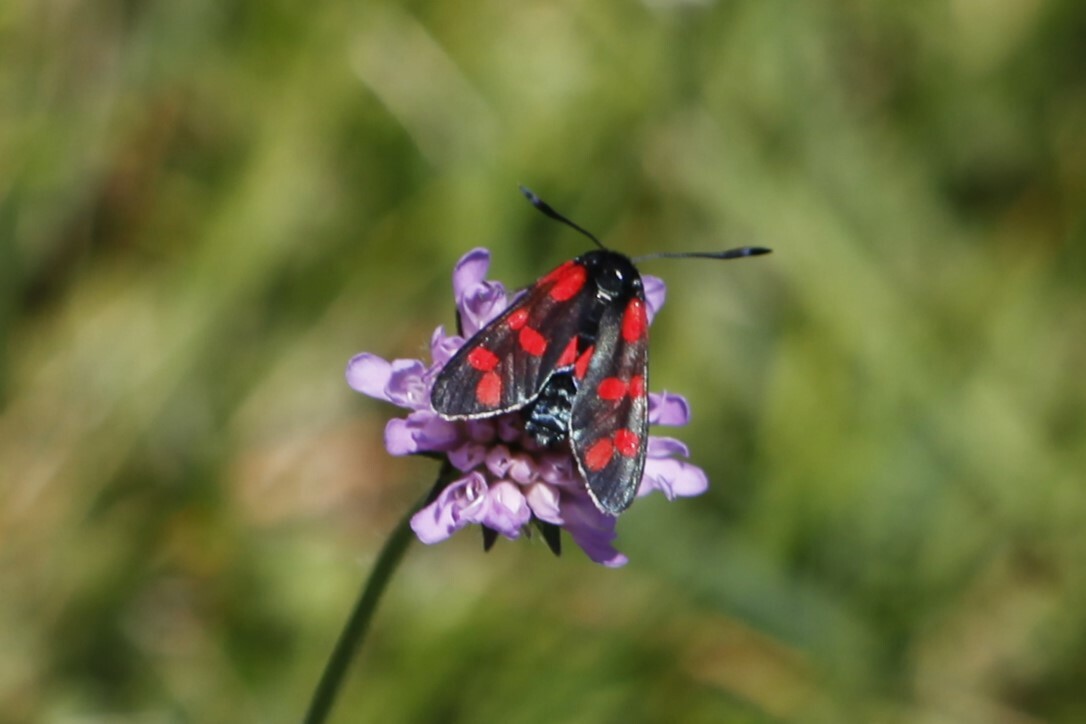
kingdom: Animalia
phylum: Arthropoda
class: Insecta
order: Lepidoptera
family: Zygaenidae
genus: Zygaena
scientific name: Zygaena filipendulae
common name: Six-spot burnet
